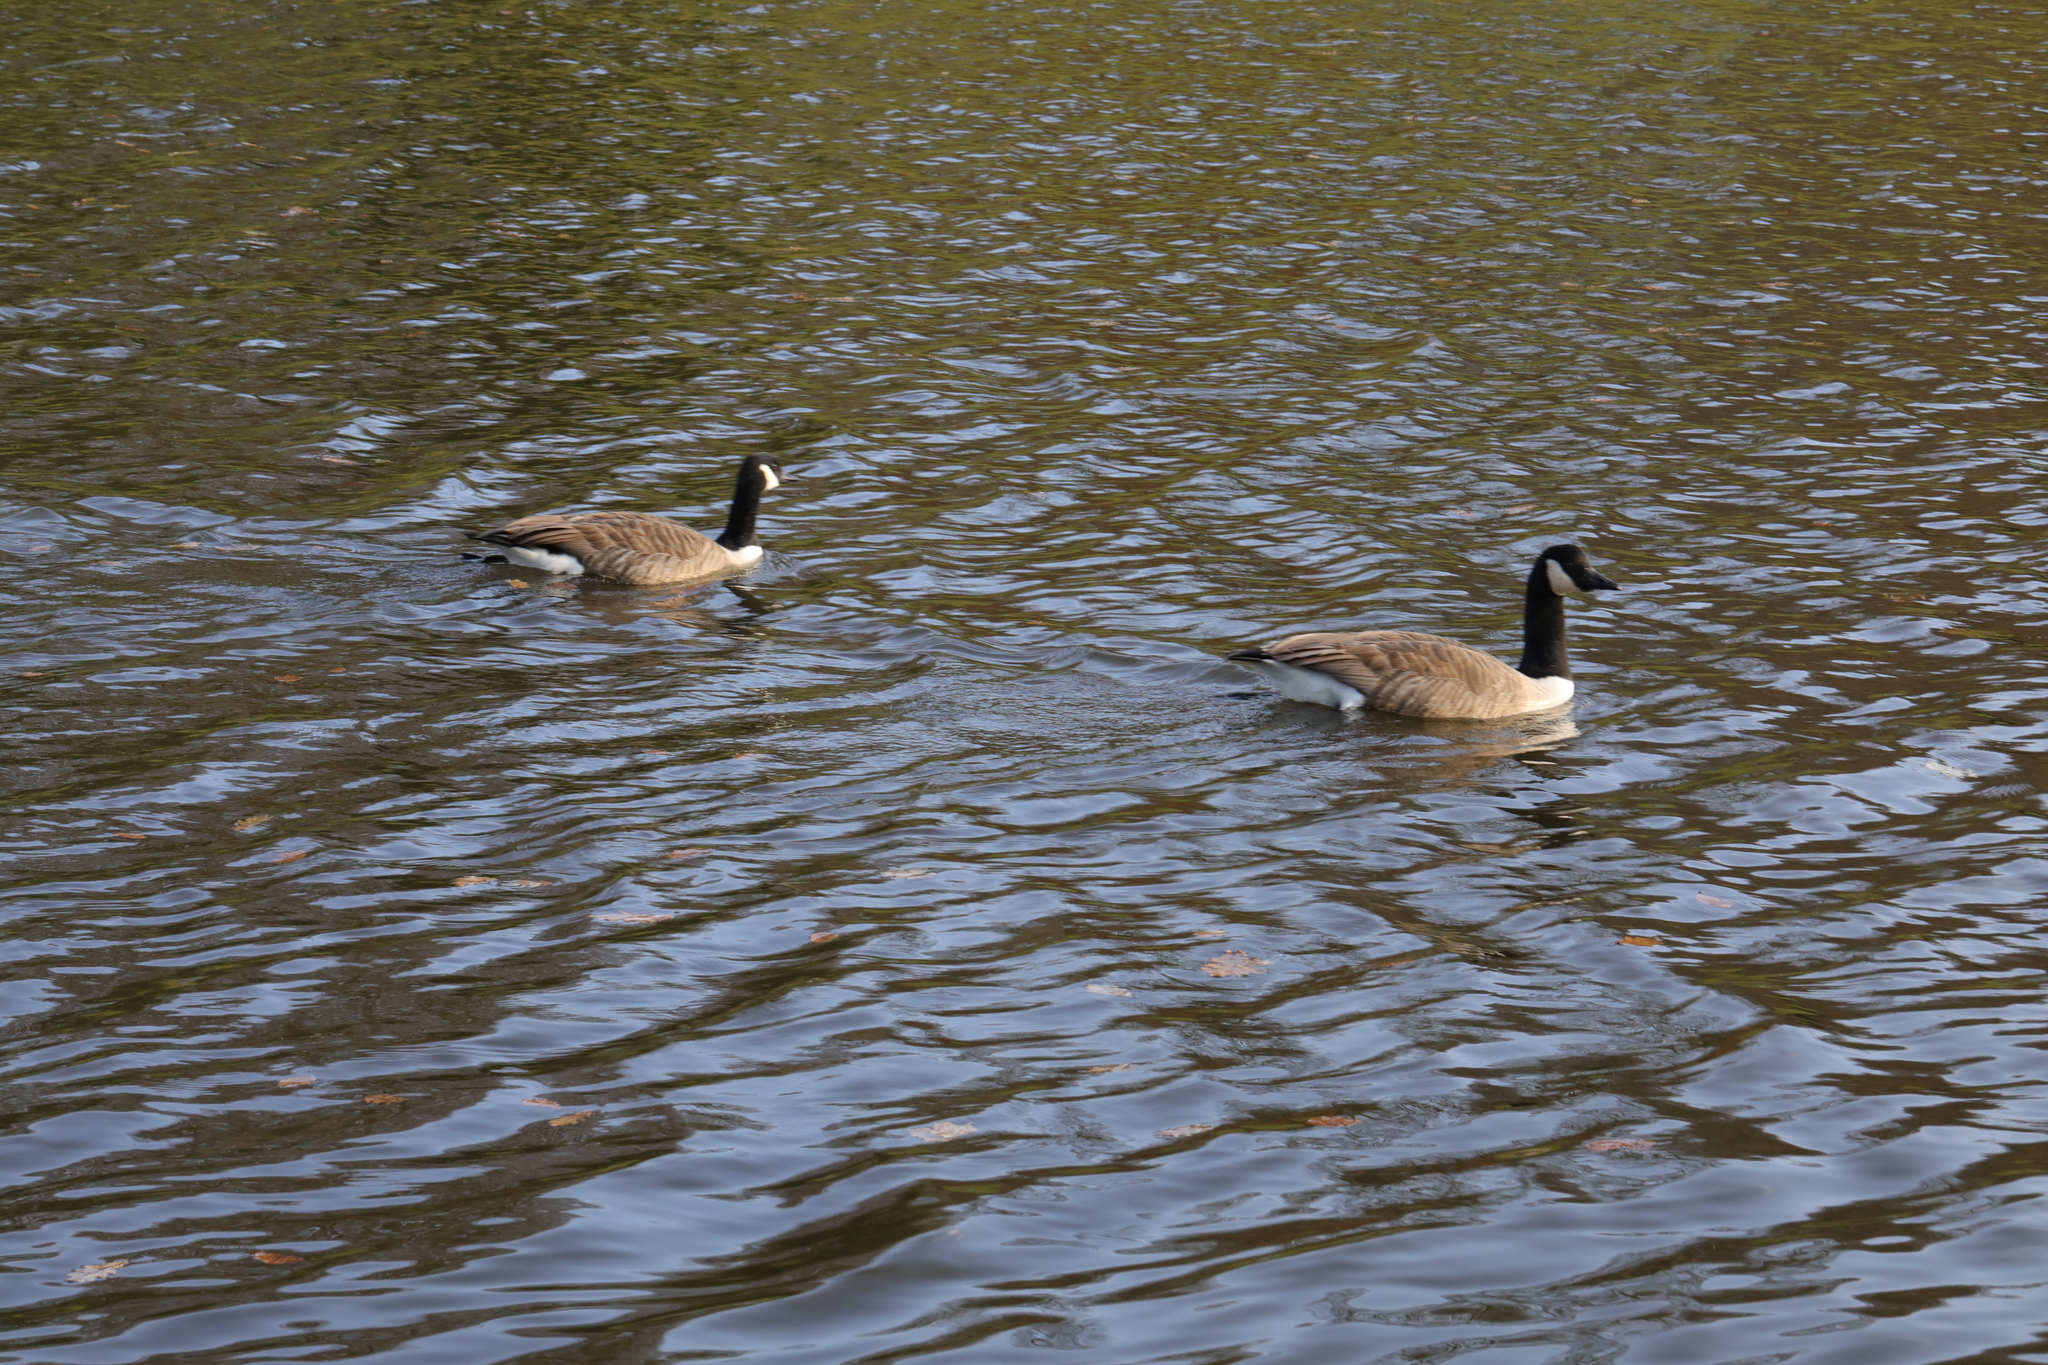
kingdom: Animalia
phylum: Chordata
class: Aves
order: Anseriformes
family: Anatidae
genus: Branta
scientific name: Branta canadensis
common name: Canada goose
